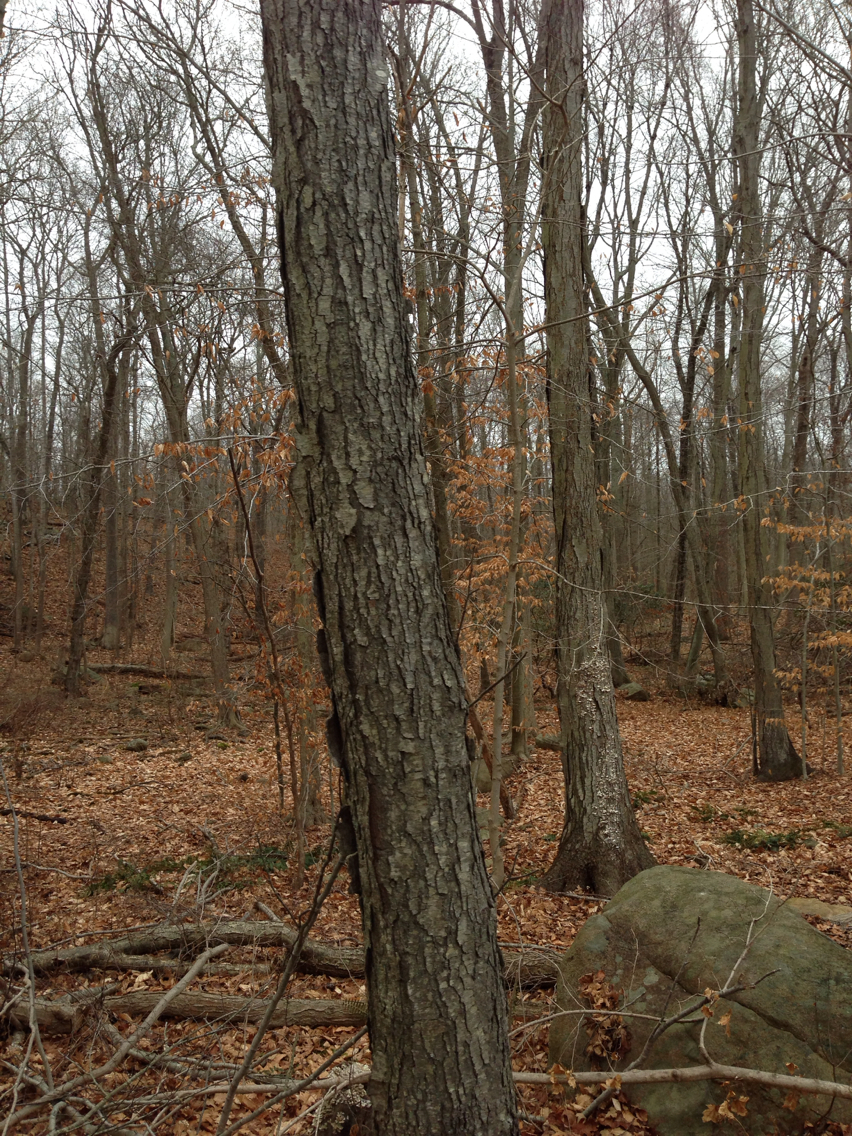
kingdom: Plantae
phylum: Tracheophyta
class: Magnoliopsida
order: Fagales
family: Betulaceae
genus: Betula
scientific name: Betula lenta
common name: Black birch
